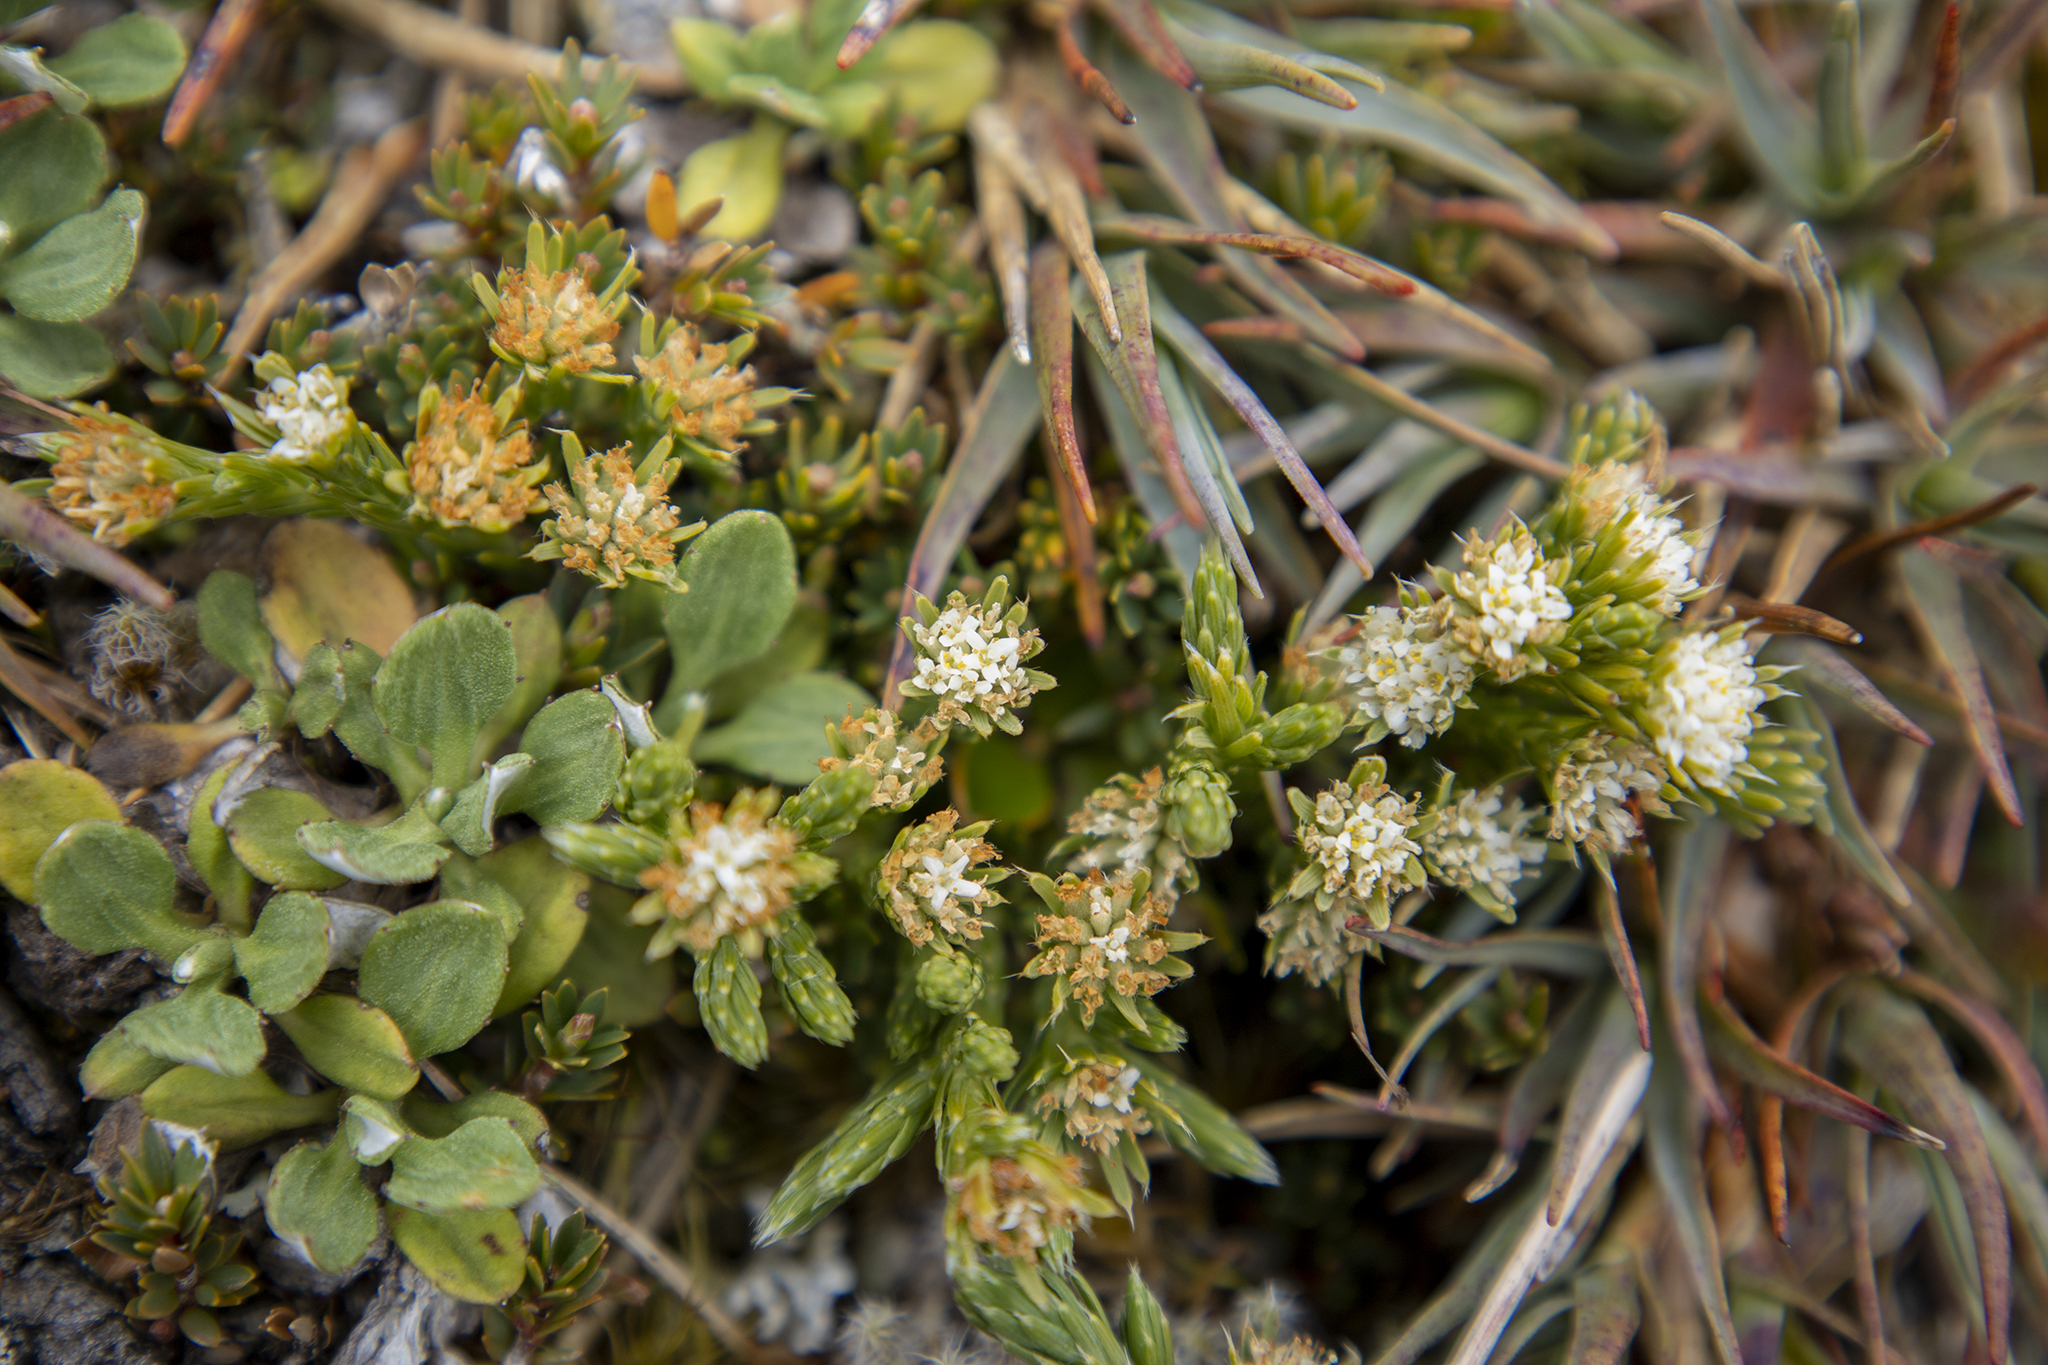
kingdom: Plantae
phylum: Tracheophyta
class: Magnoliopsida
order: Malvales
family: Thymelaeaceae
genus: Kelleria
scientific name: Kelleria multiflora
